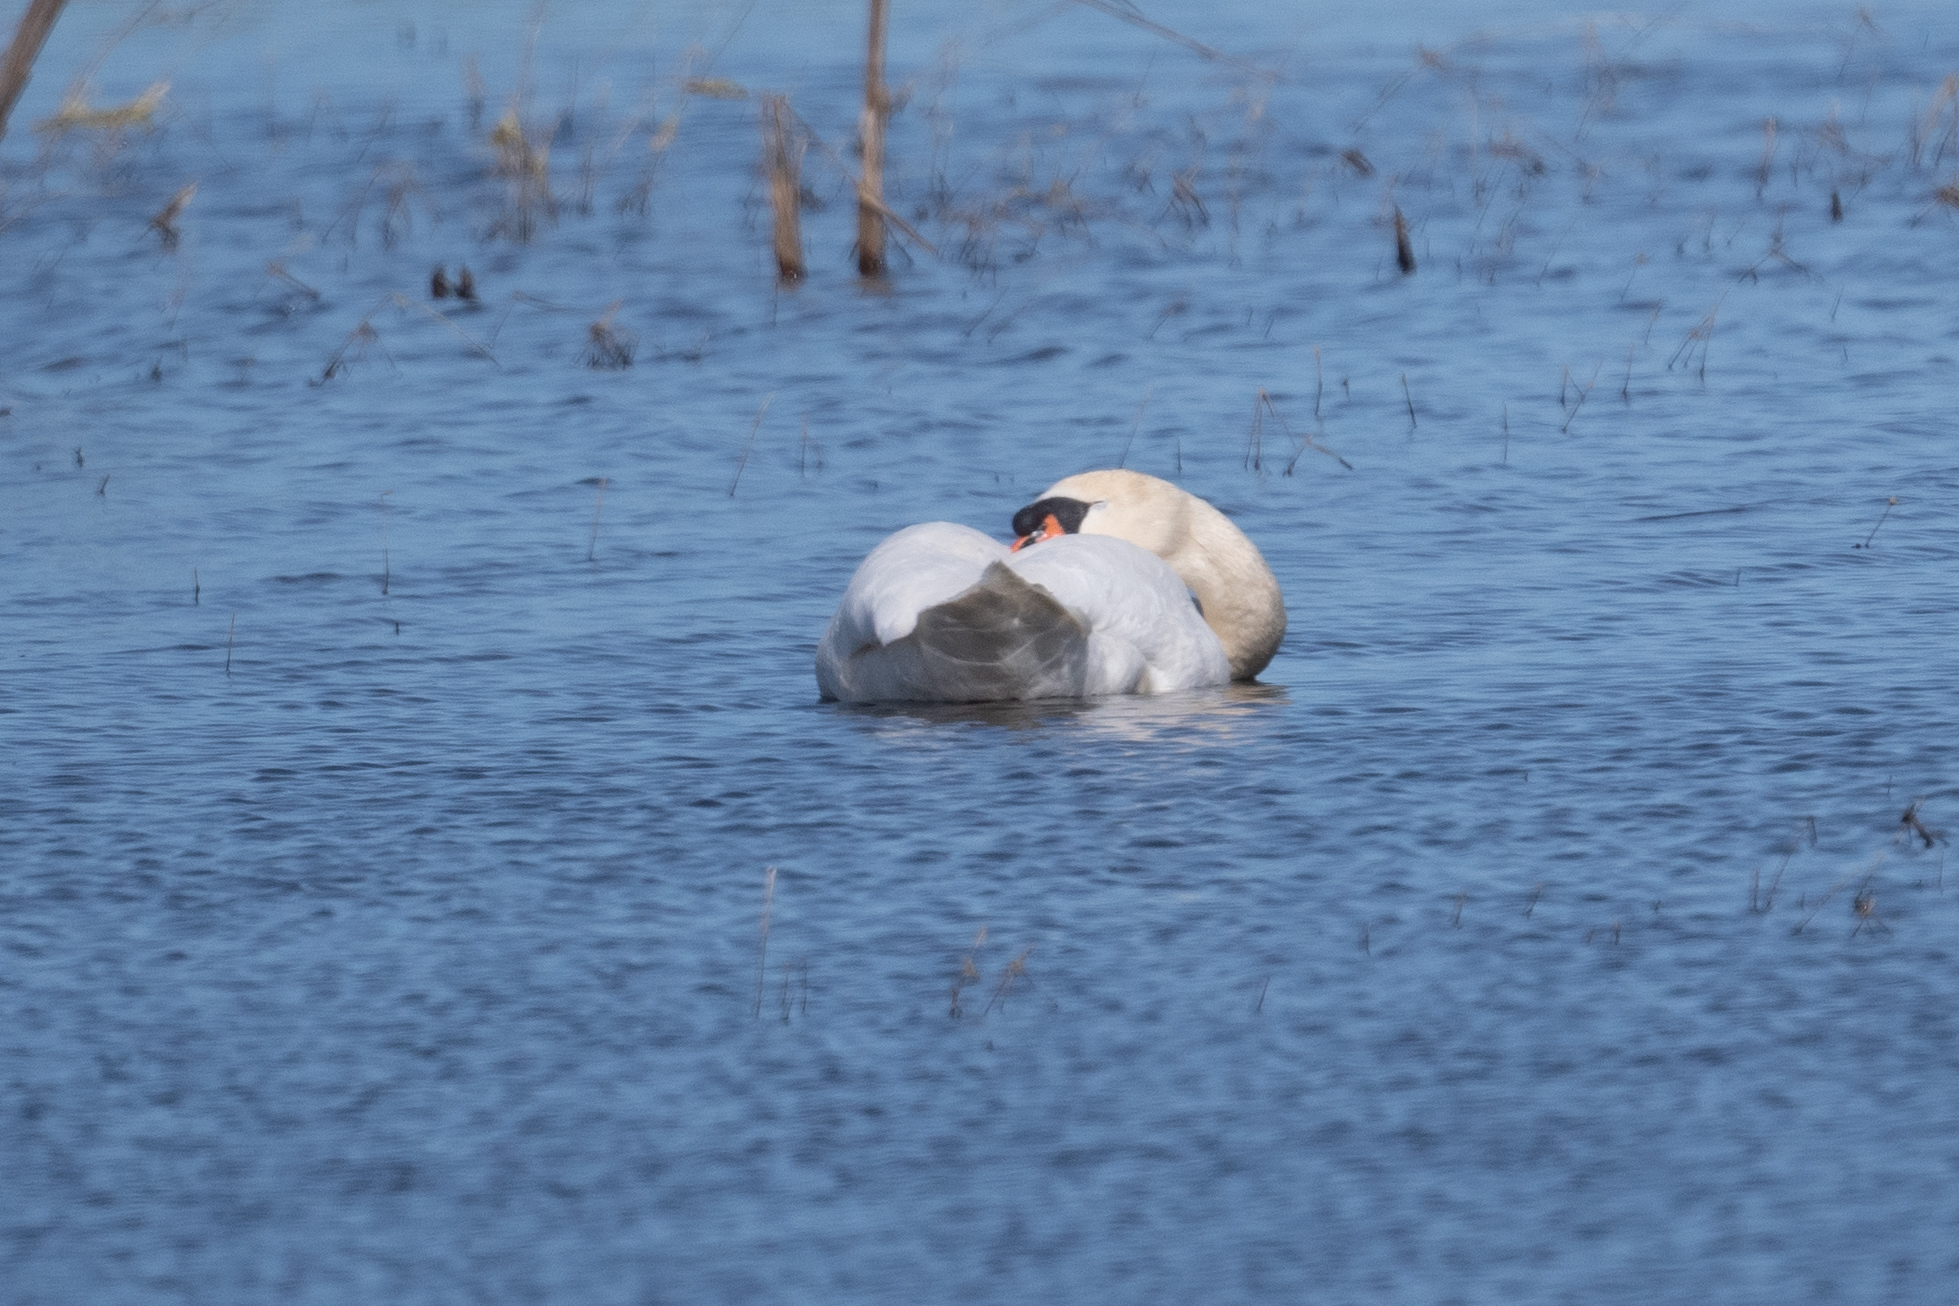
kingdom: Animalia
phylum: Chordata
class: Aves
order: Anseriformes
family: Anatidae
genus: Cygnus
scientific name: Cygnus olor
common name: Mute swan
